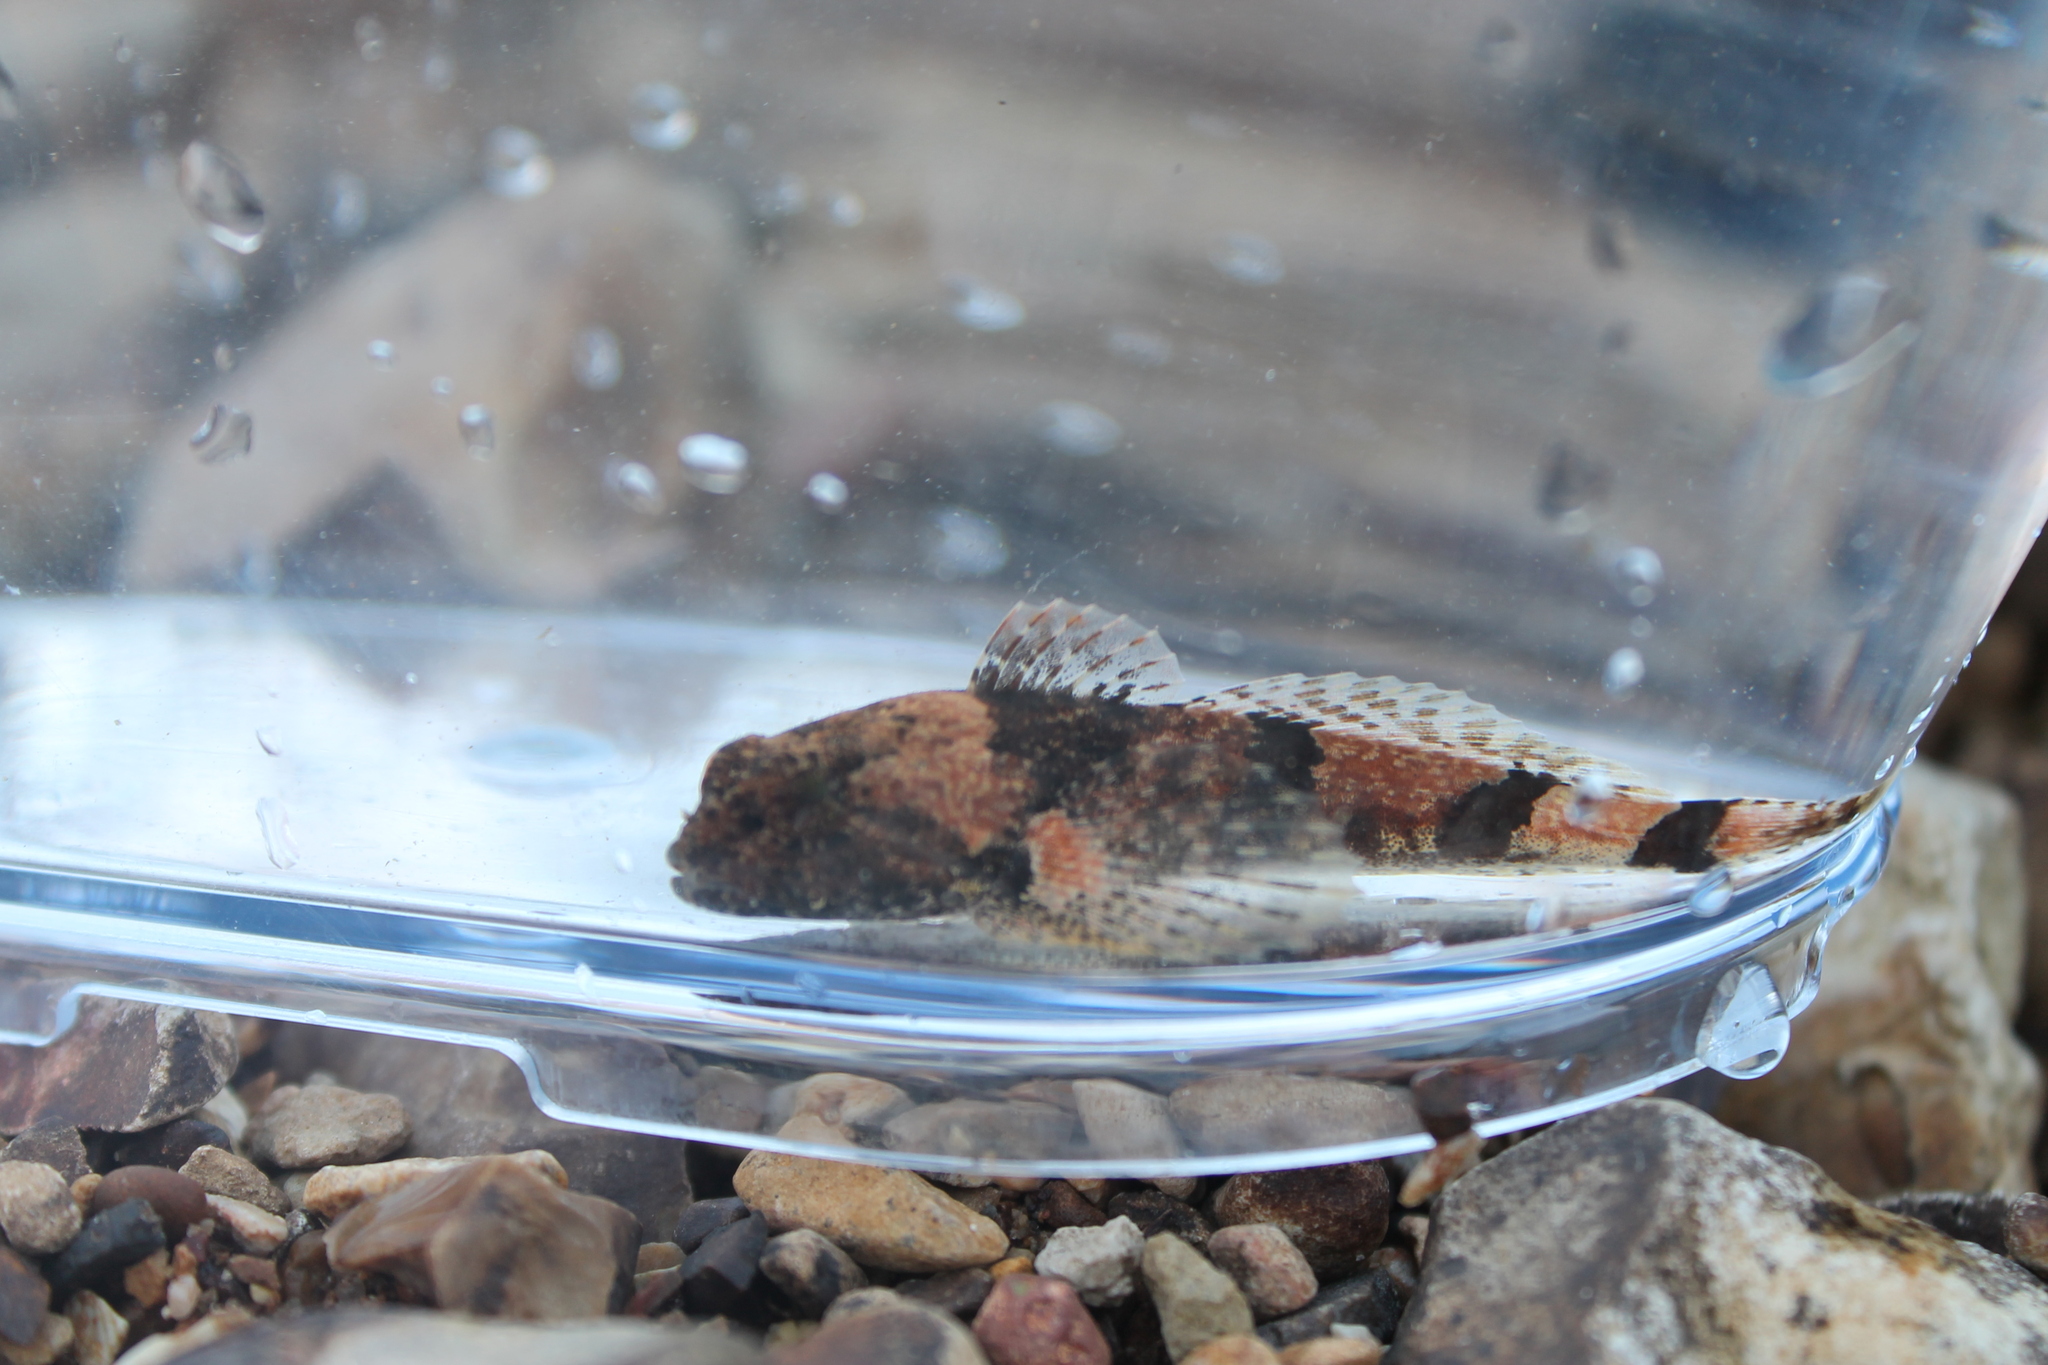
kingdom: Animalia
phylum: Chordata
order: Scorpaeniformes
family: Cottidae
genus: Cottus
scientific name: Cottus carolinae
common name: Banded sculpin
